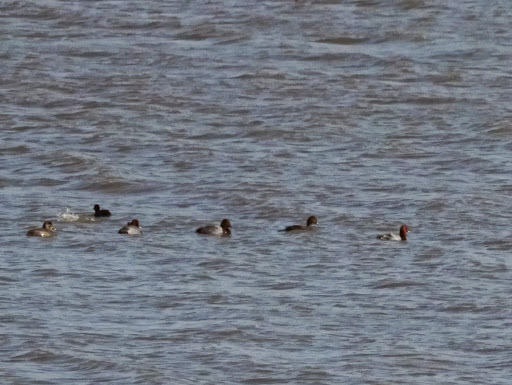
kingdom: Animalia
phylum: Chordata
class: Aves
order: Anseriformes
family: Anatidae
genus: Aythya
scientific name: Aythya americana
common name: Redhead
